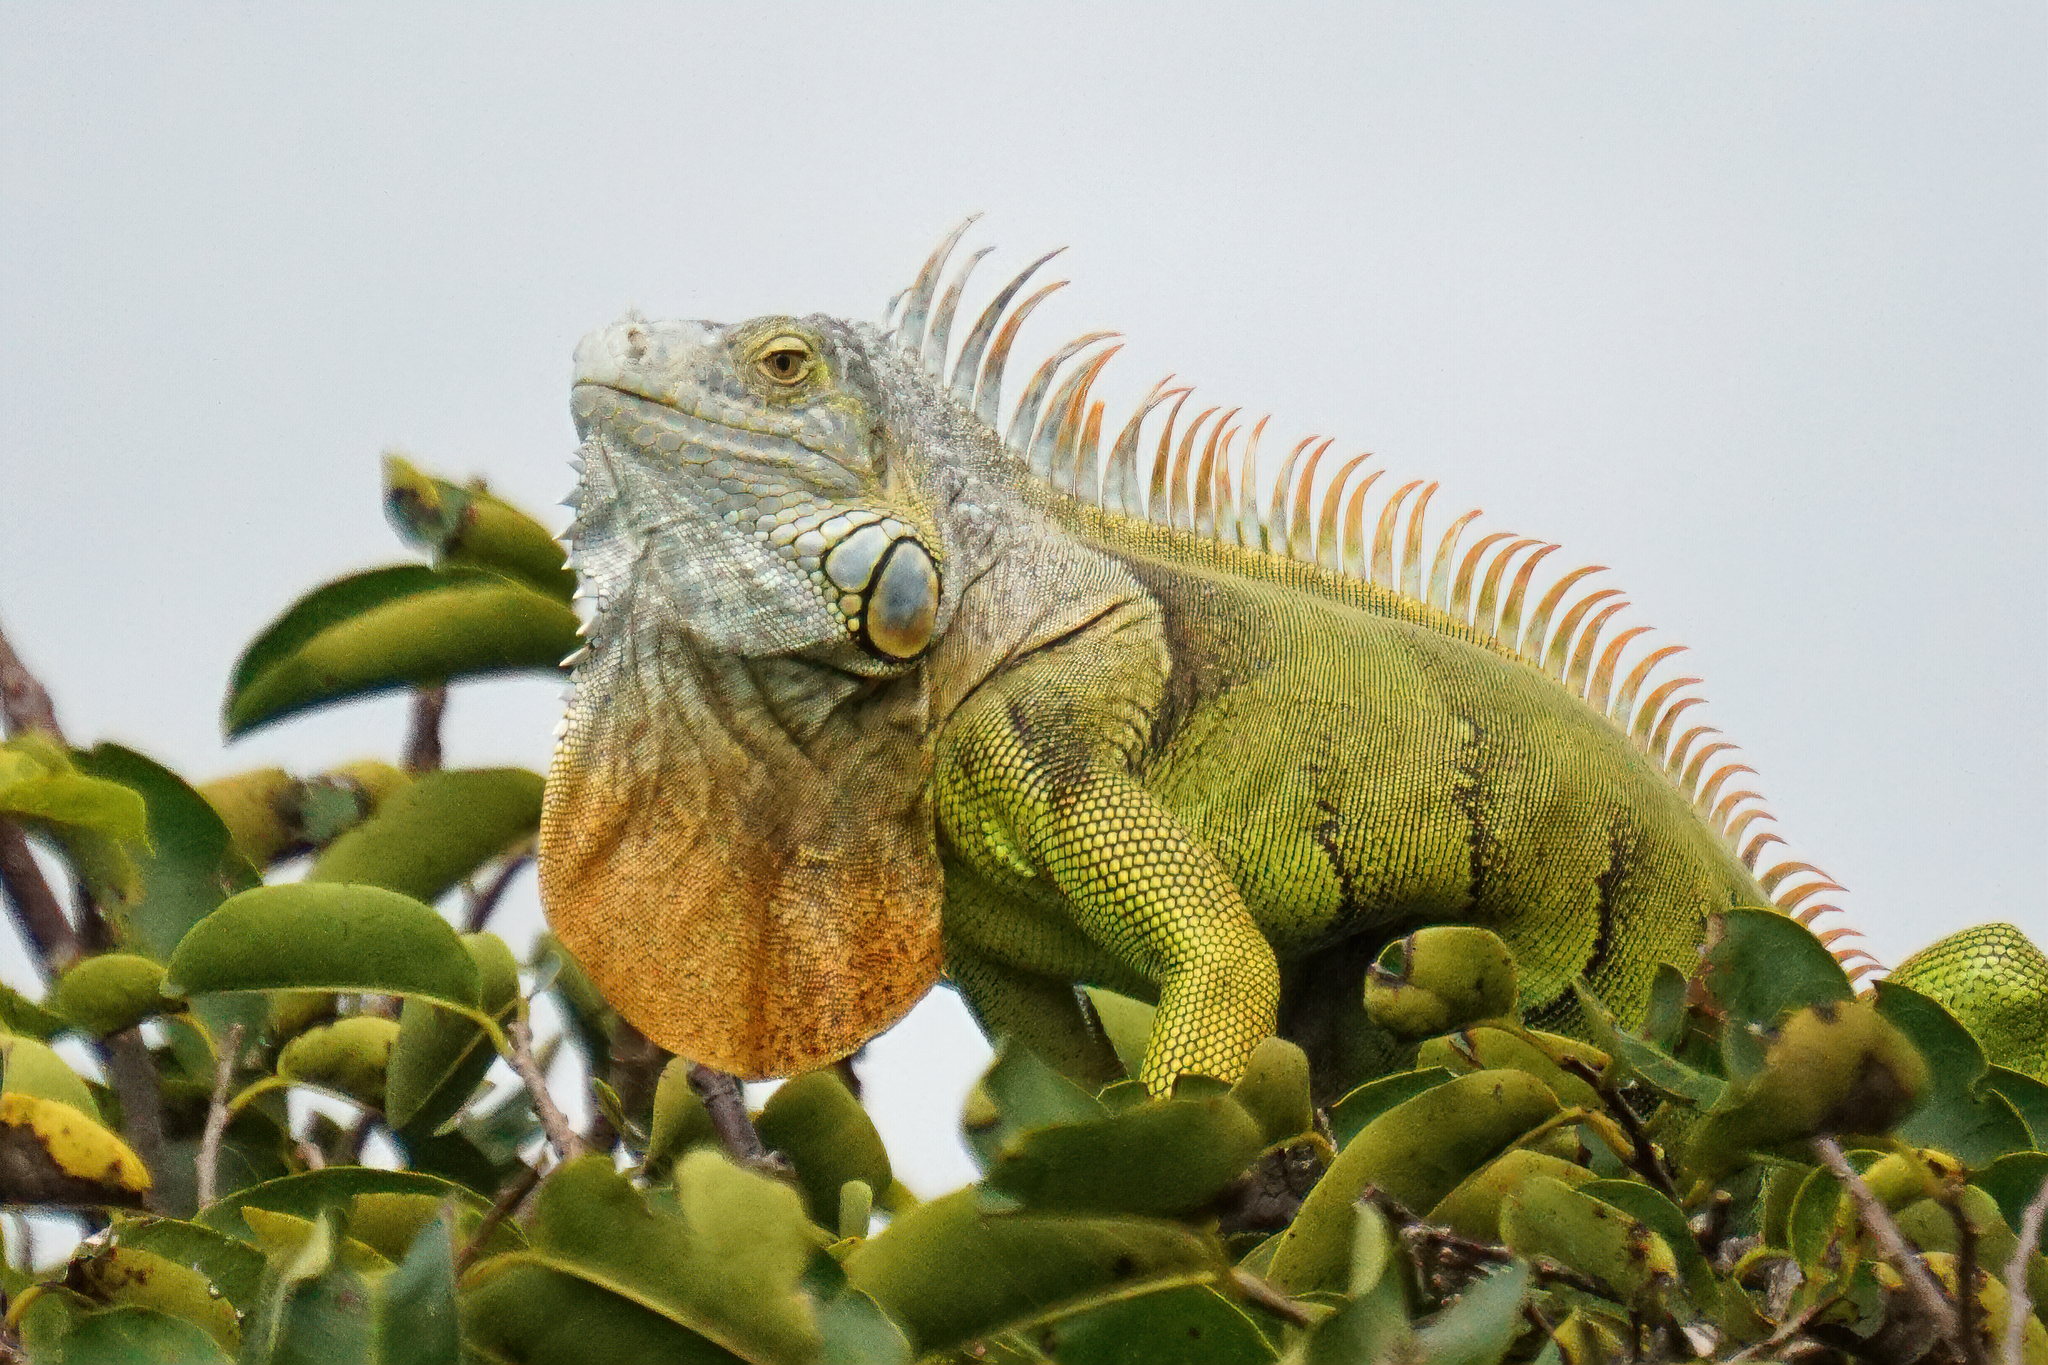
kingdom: Animalia
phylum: Chordata
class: Squamata
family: Iguanidae
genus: Iguana
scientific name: Iguana iguana
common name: Green iguana
